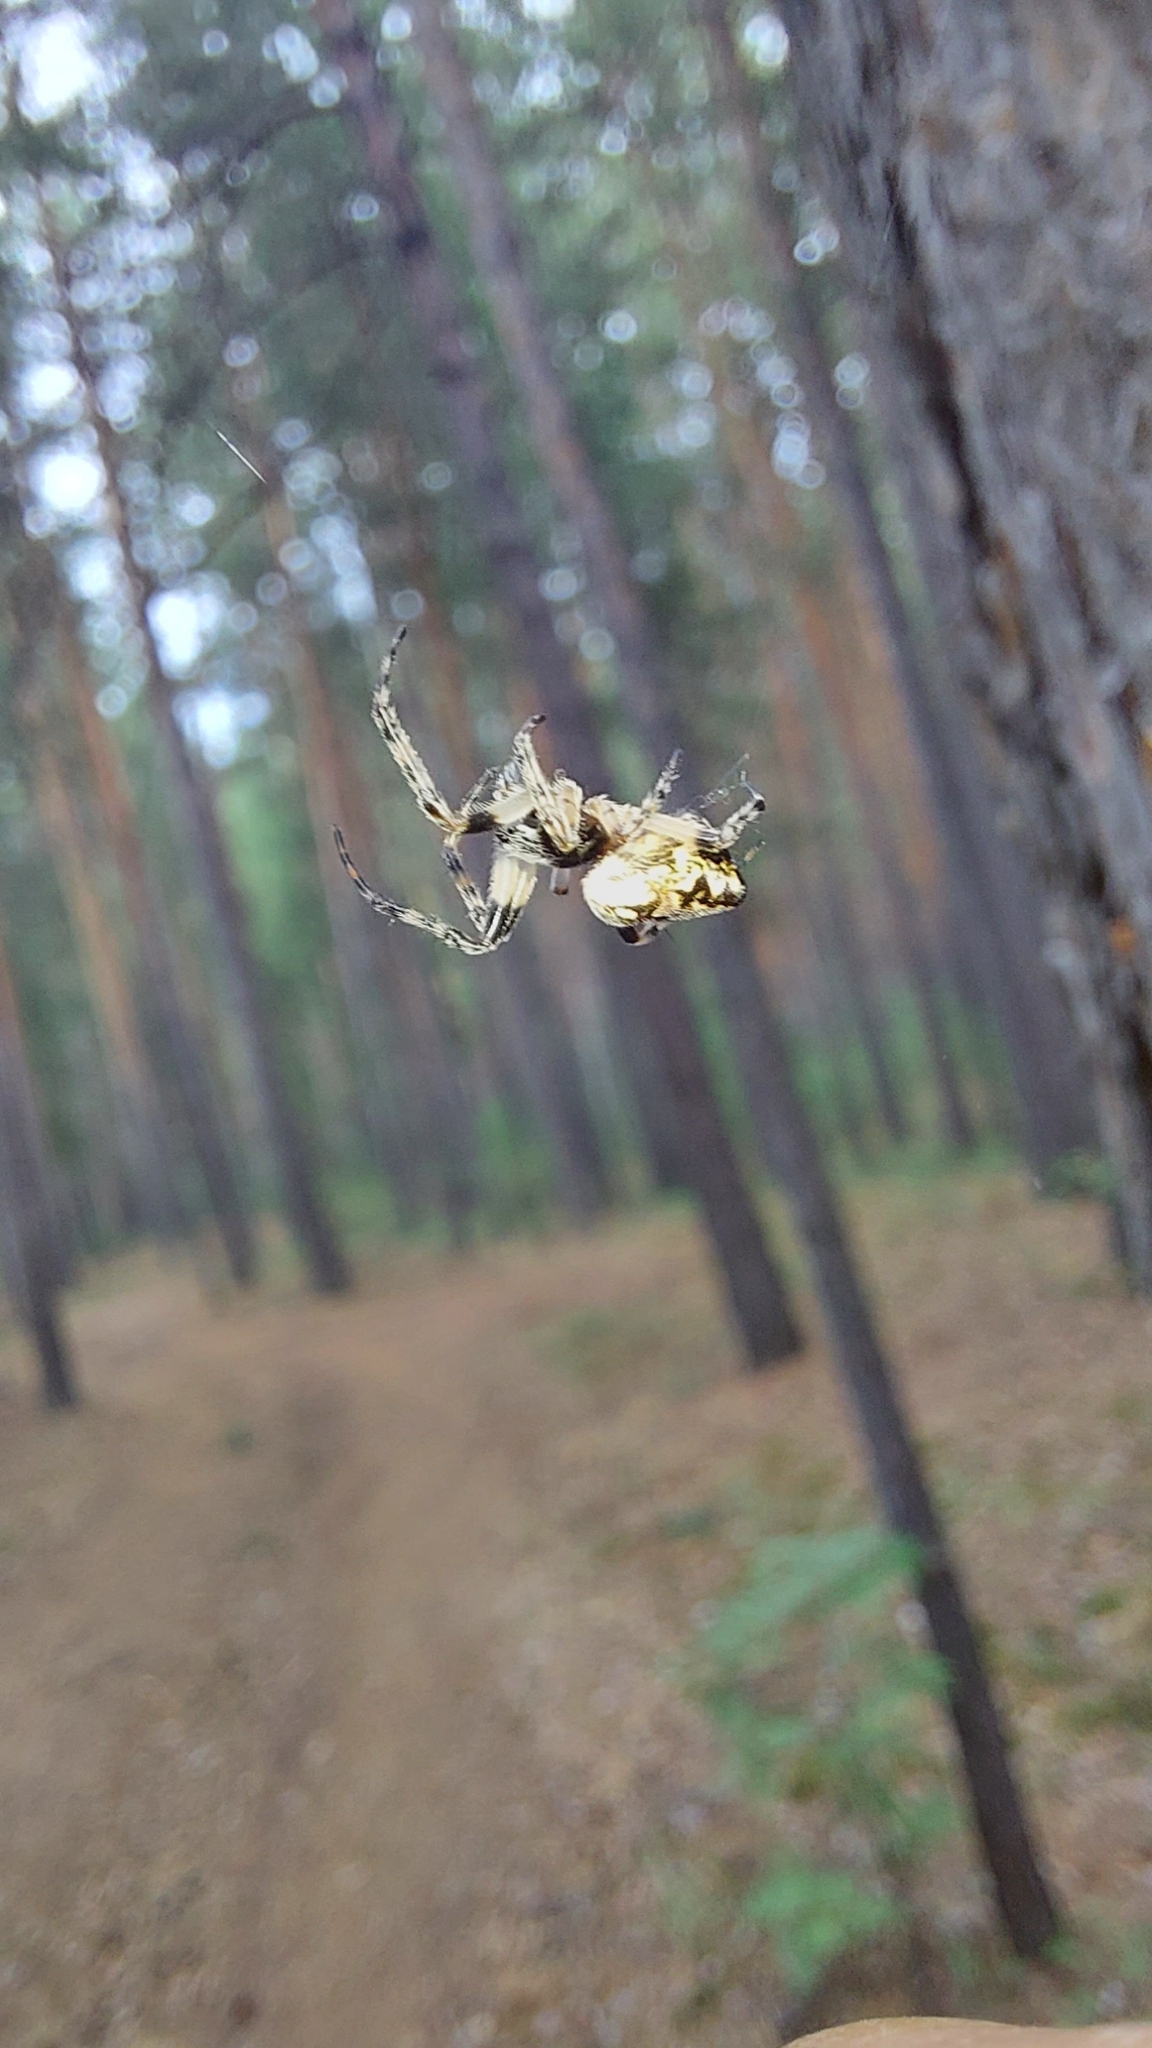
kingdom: Animalia
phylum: Arthropoda
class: Arachnida
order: Araneae
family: Araneidae
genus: Cyclosa
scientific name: Cyclosa conica
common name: Conical trashline orbweaver
